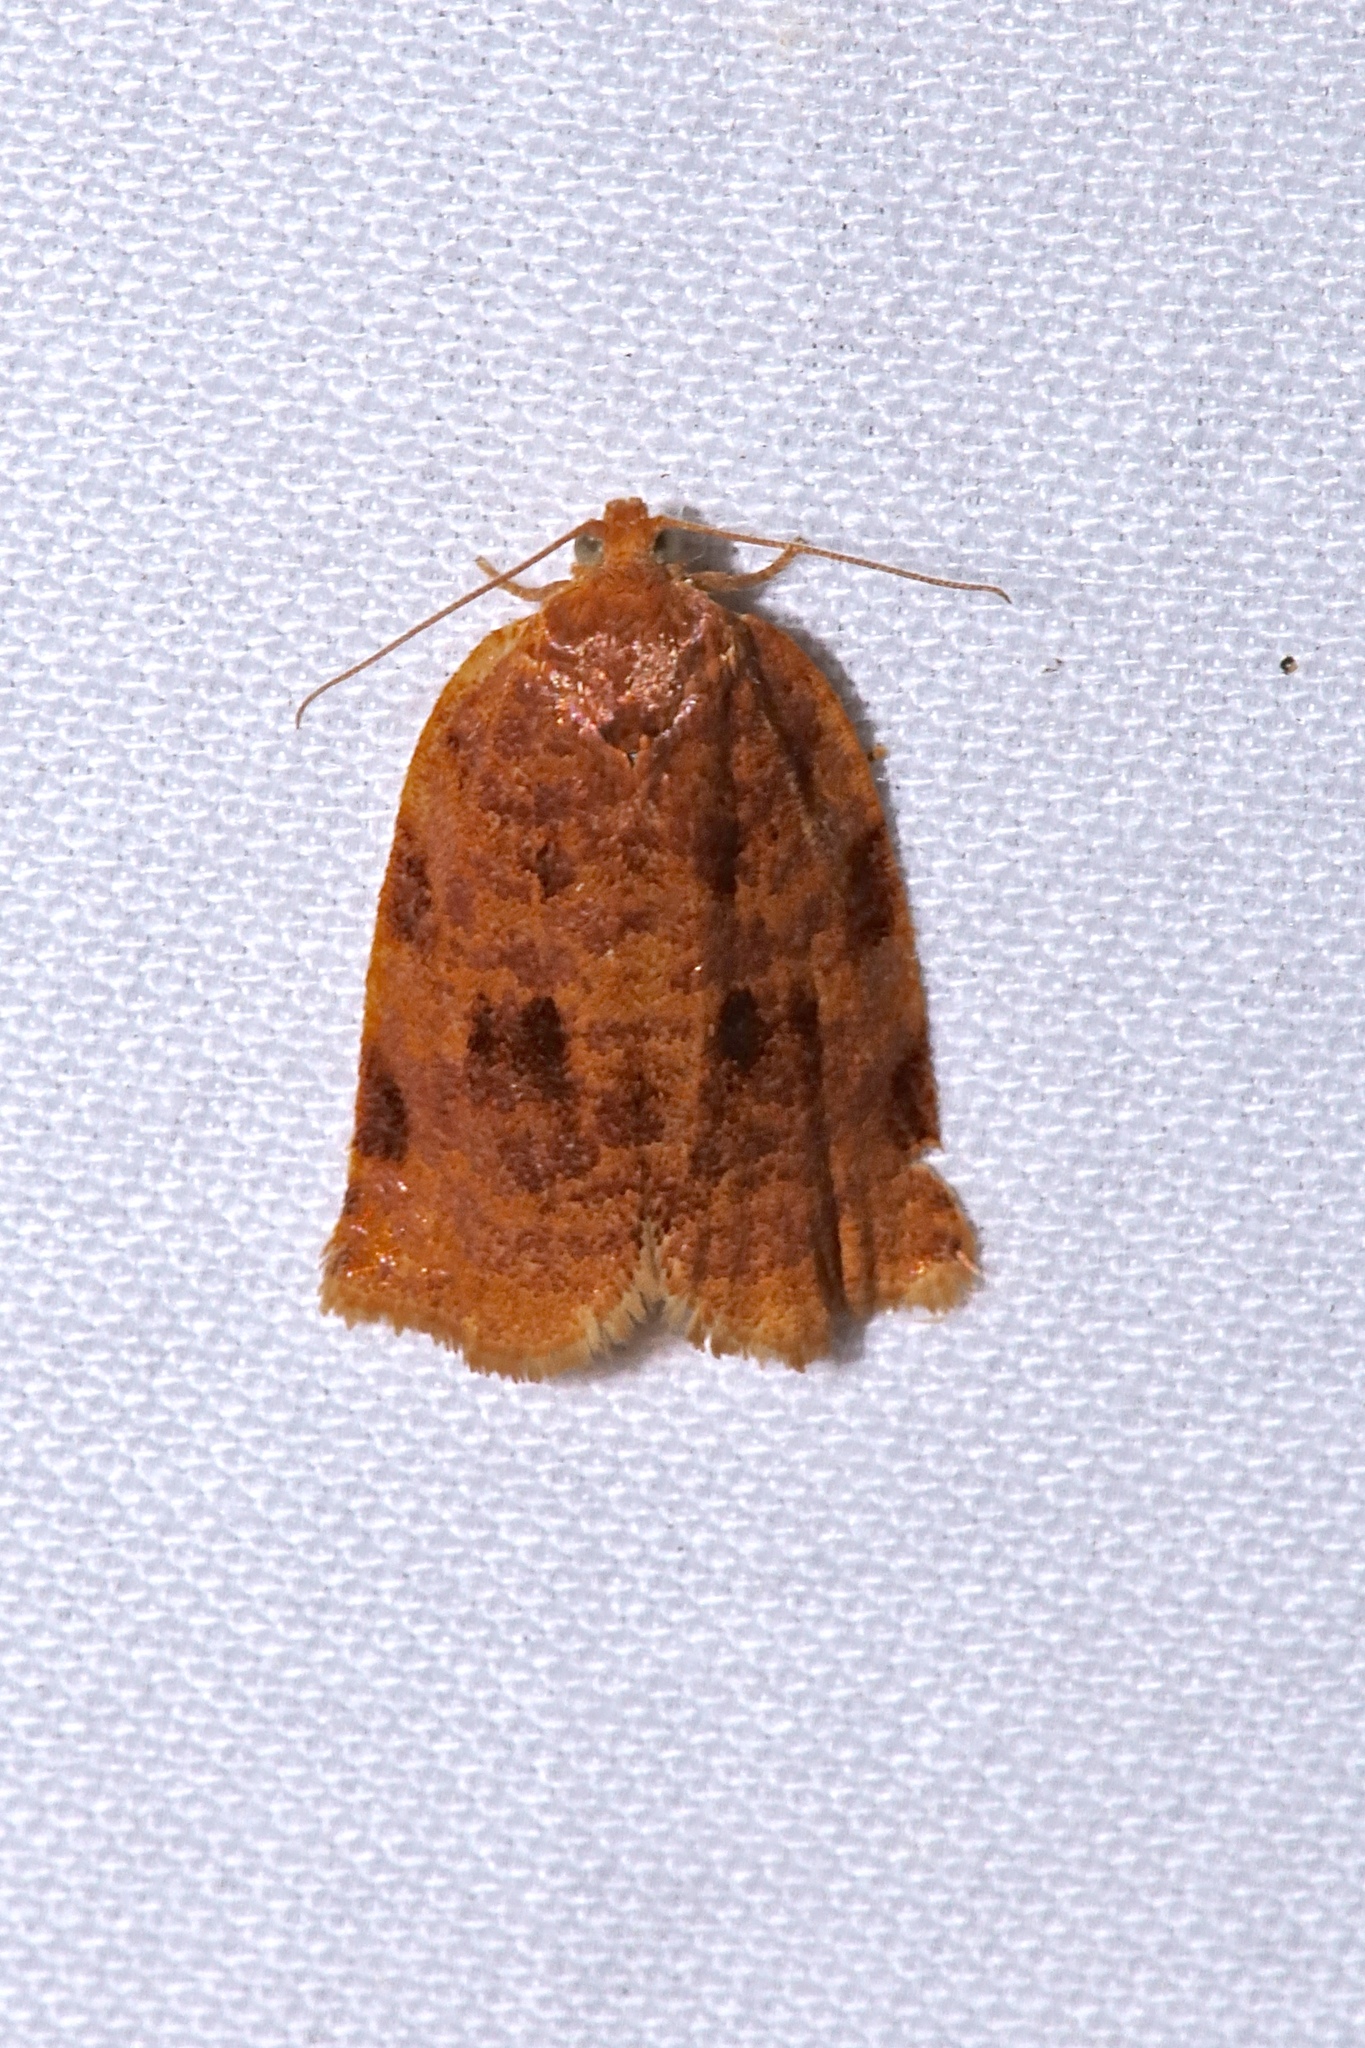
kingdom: Animalia
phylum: Arthropoda
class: Insecta
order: Lepidoptera
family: Tortricidae
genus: Archips
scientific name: Archips cerasivorana
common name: Uglynest caterpillar
